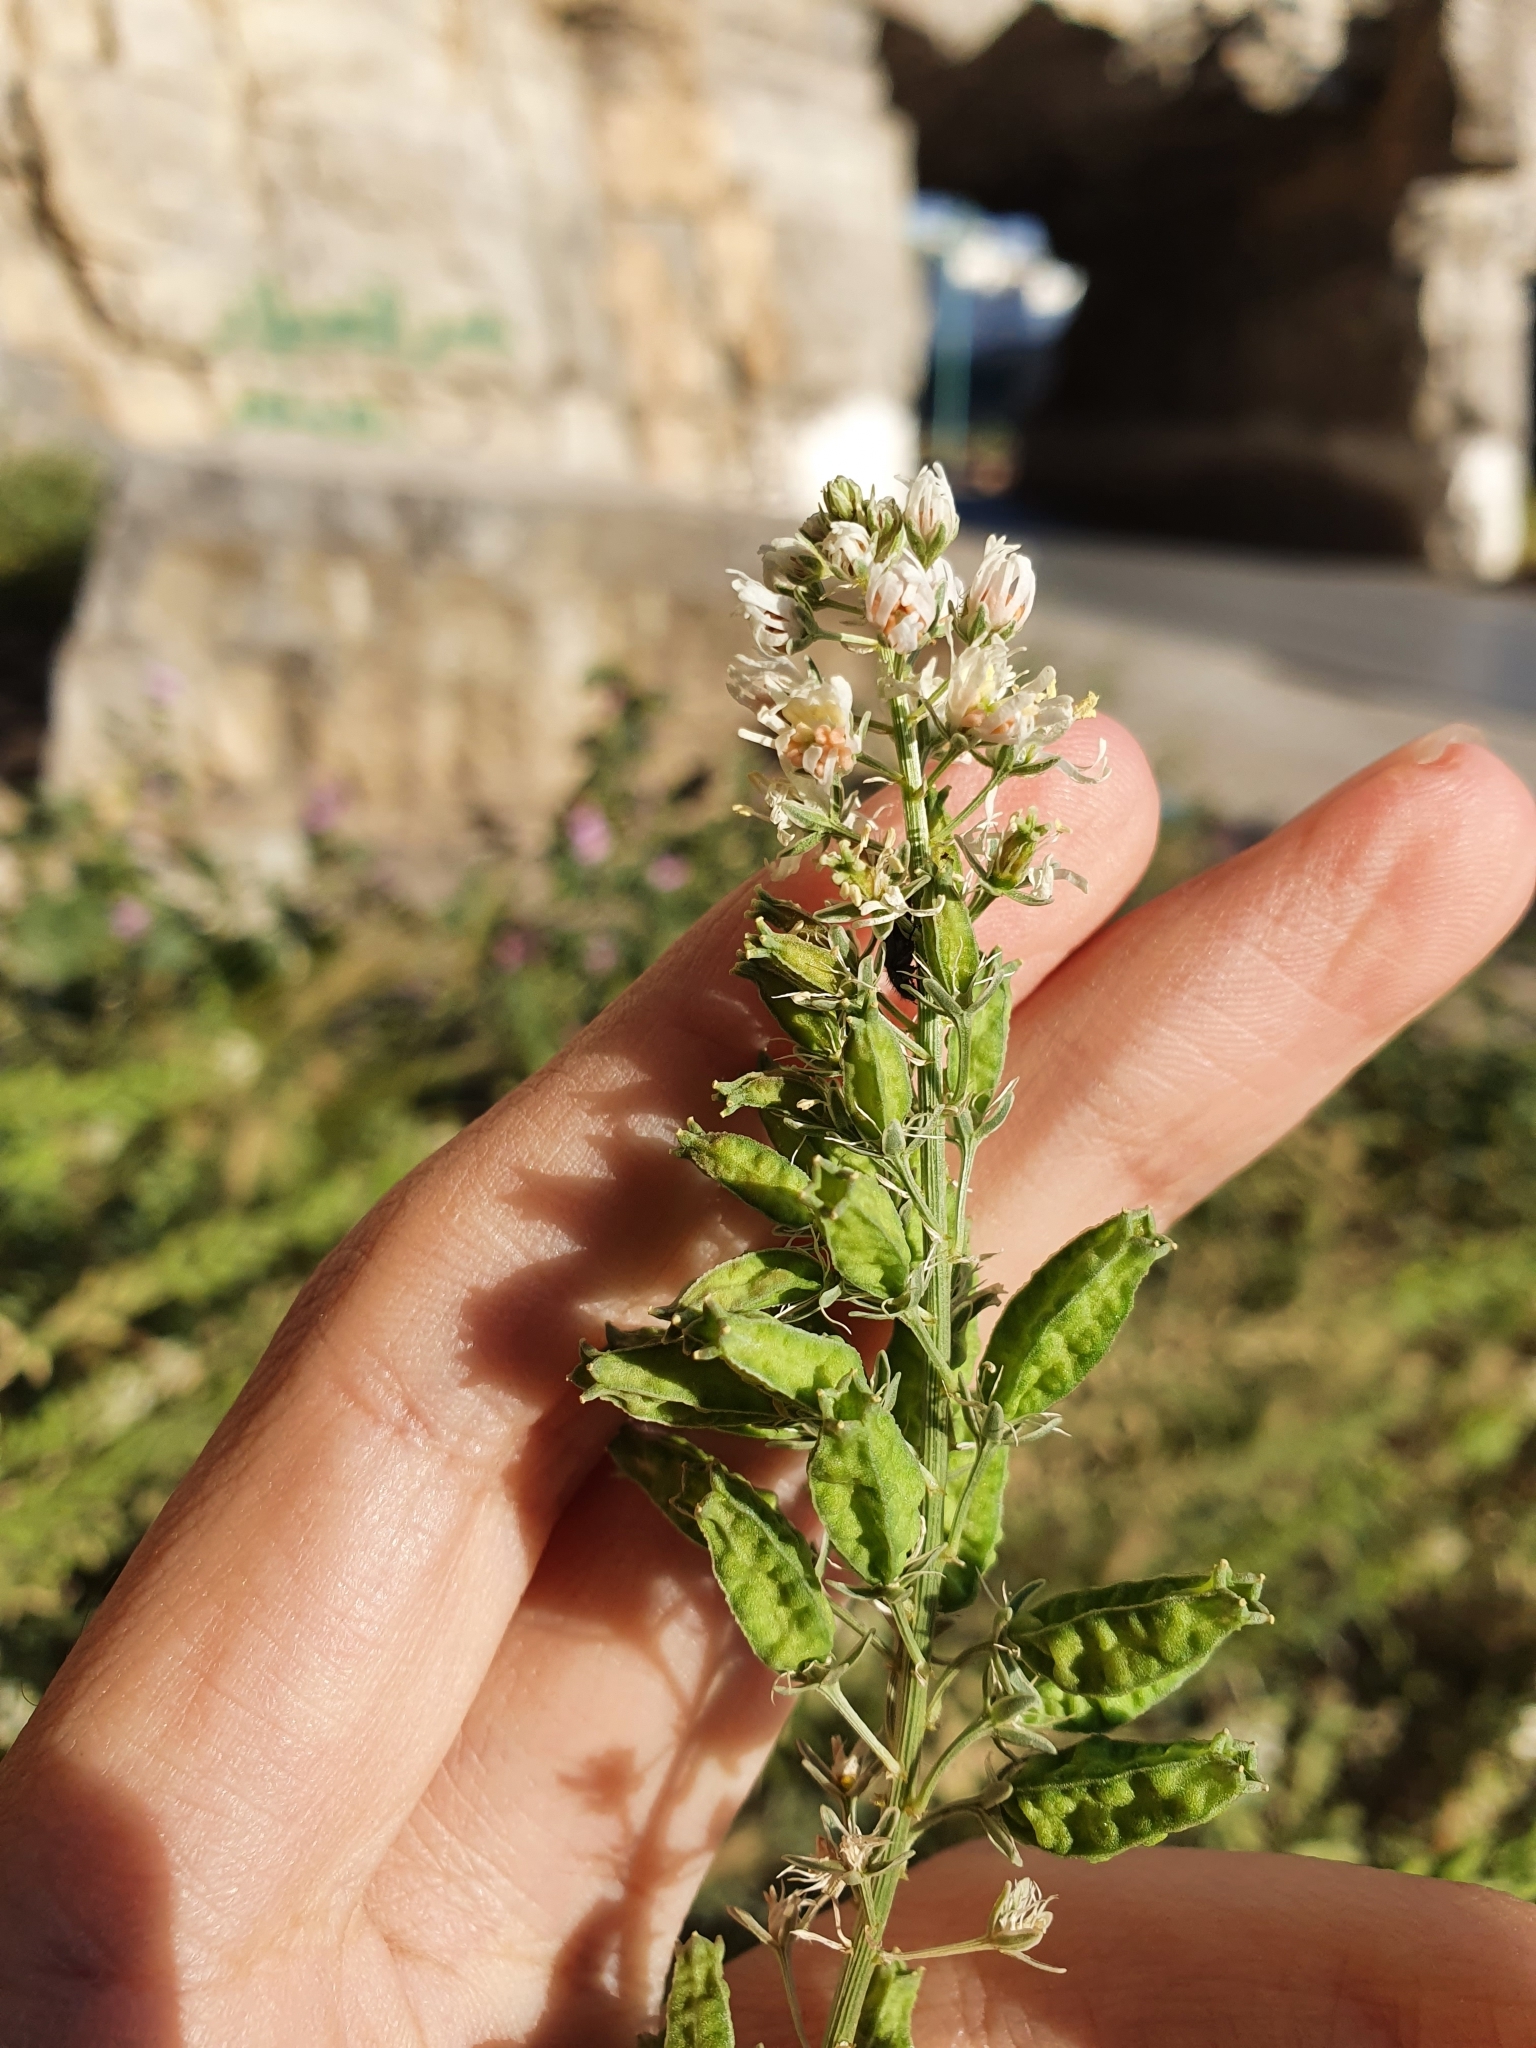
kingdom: Plantae
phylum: Tracheophyta
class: Magnoliopsida
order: Brassicales
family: Resedaceae
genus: Reseda
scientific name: Reseda alba
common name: White mignonette
